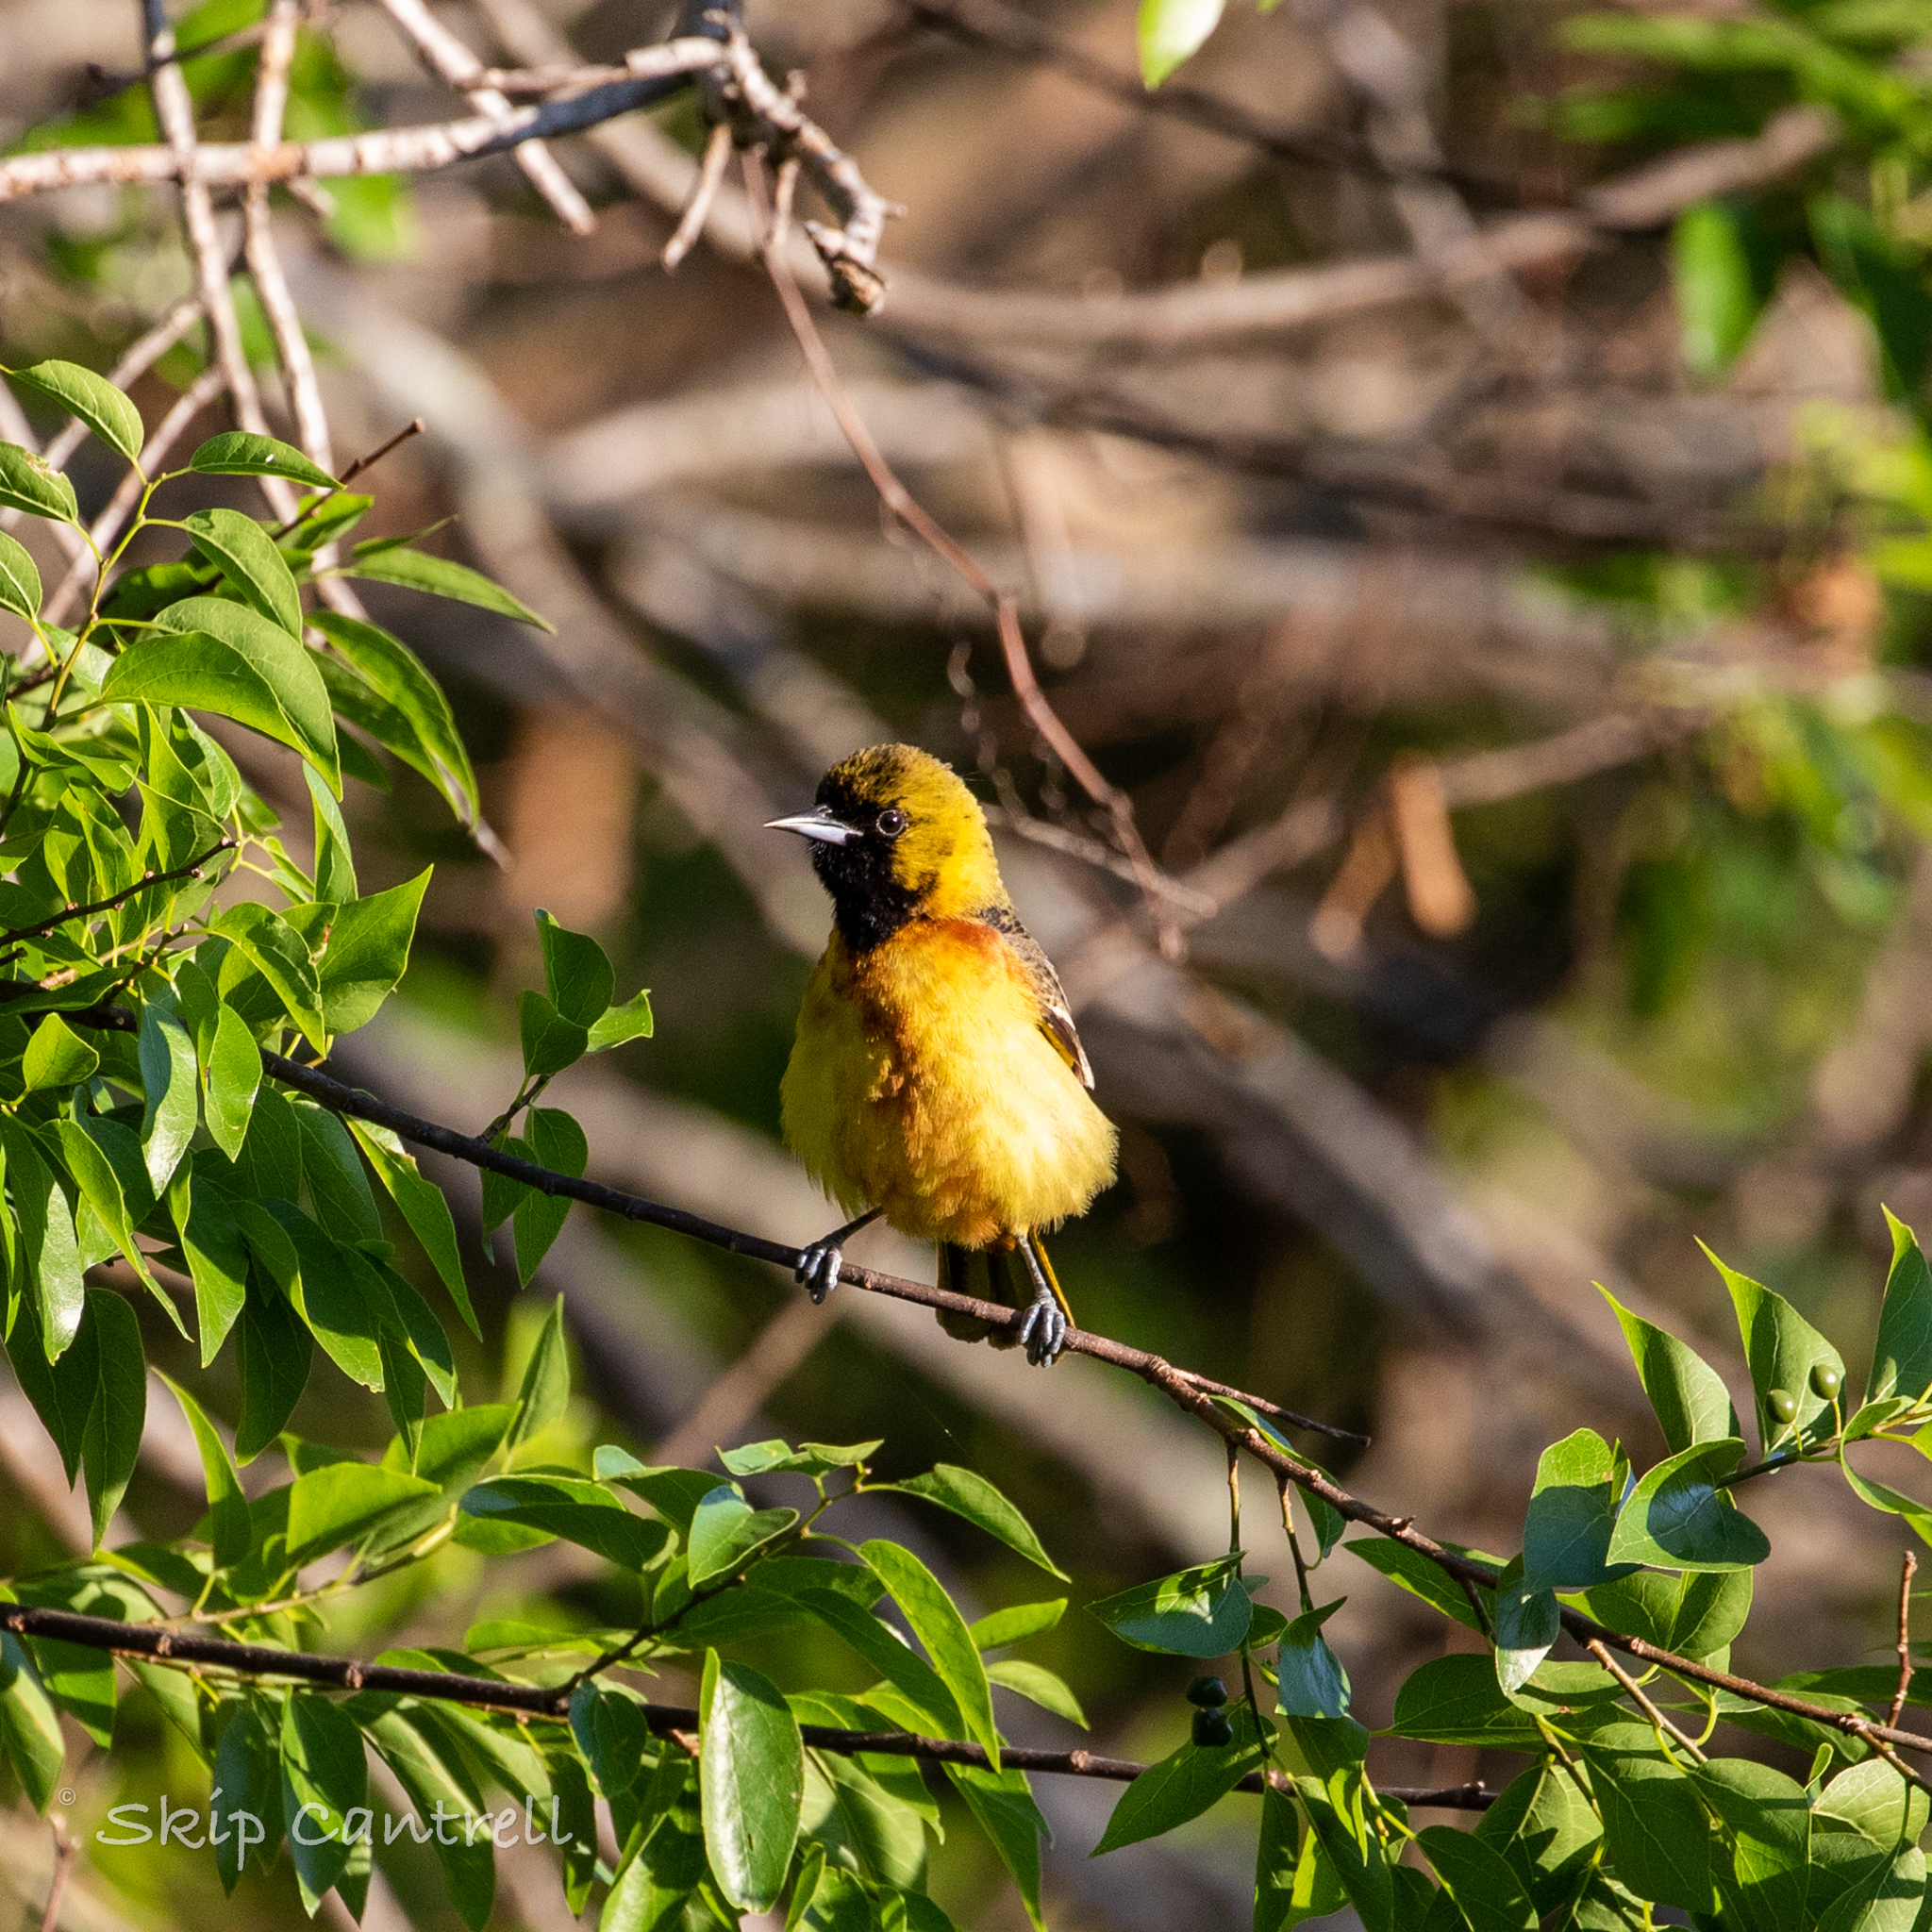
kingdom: Animalia
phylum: Chordata
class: Aves
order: Passeriformes
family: Icteridae
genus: Icterus
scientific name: Icterus spurius
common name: Orchard oriole
